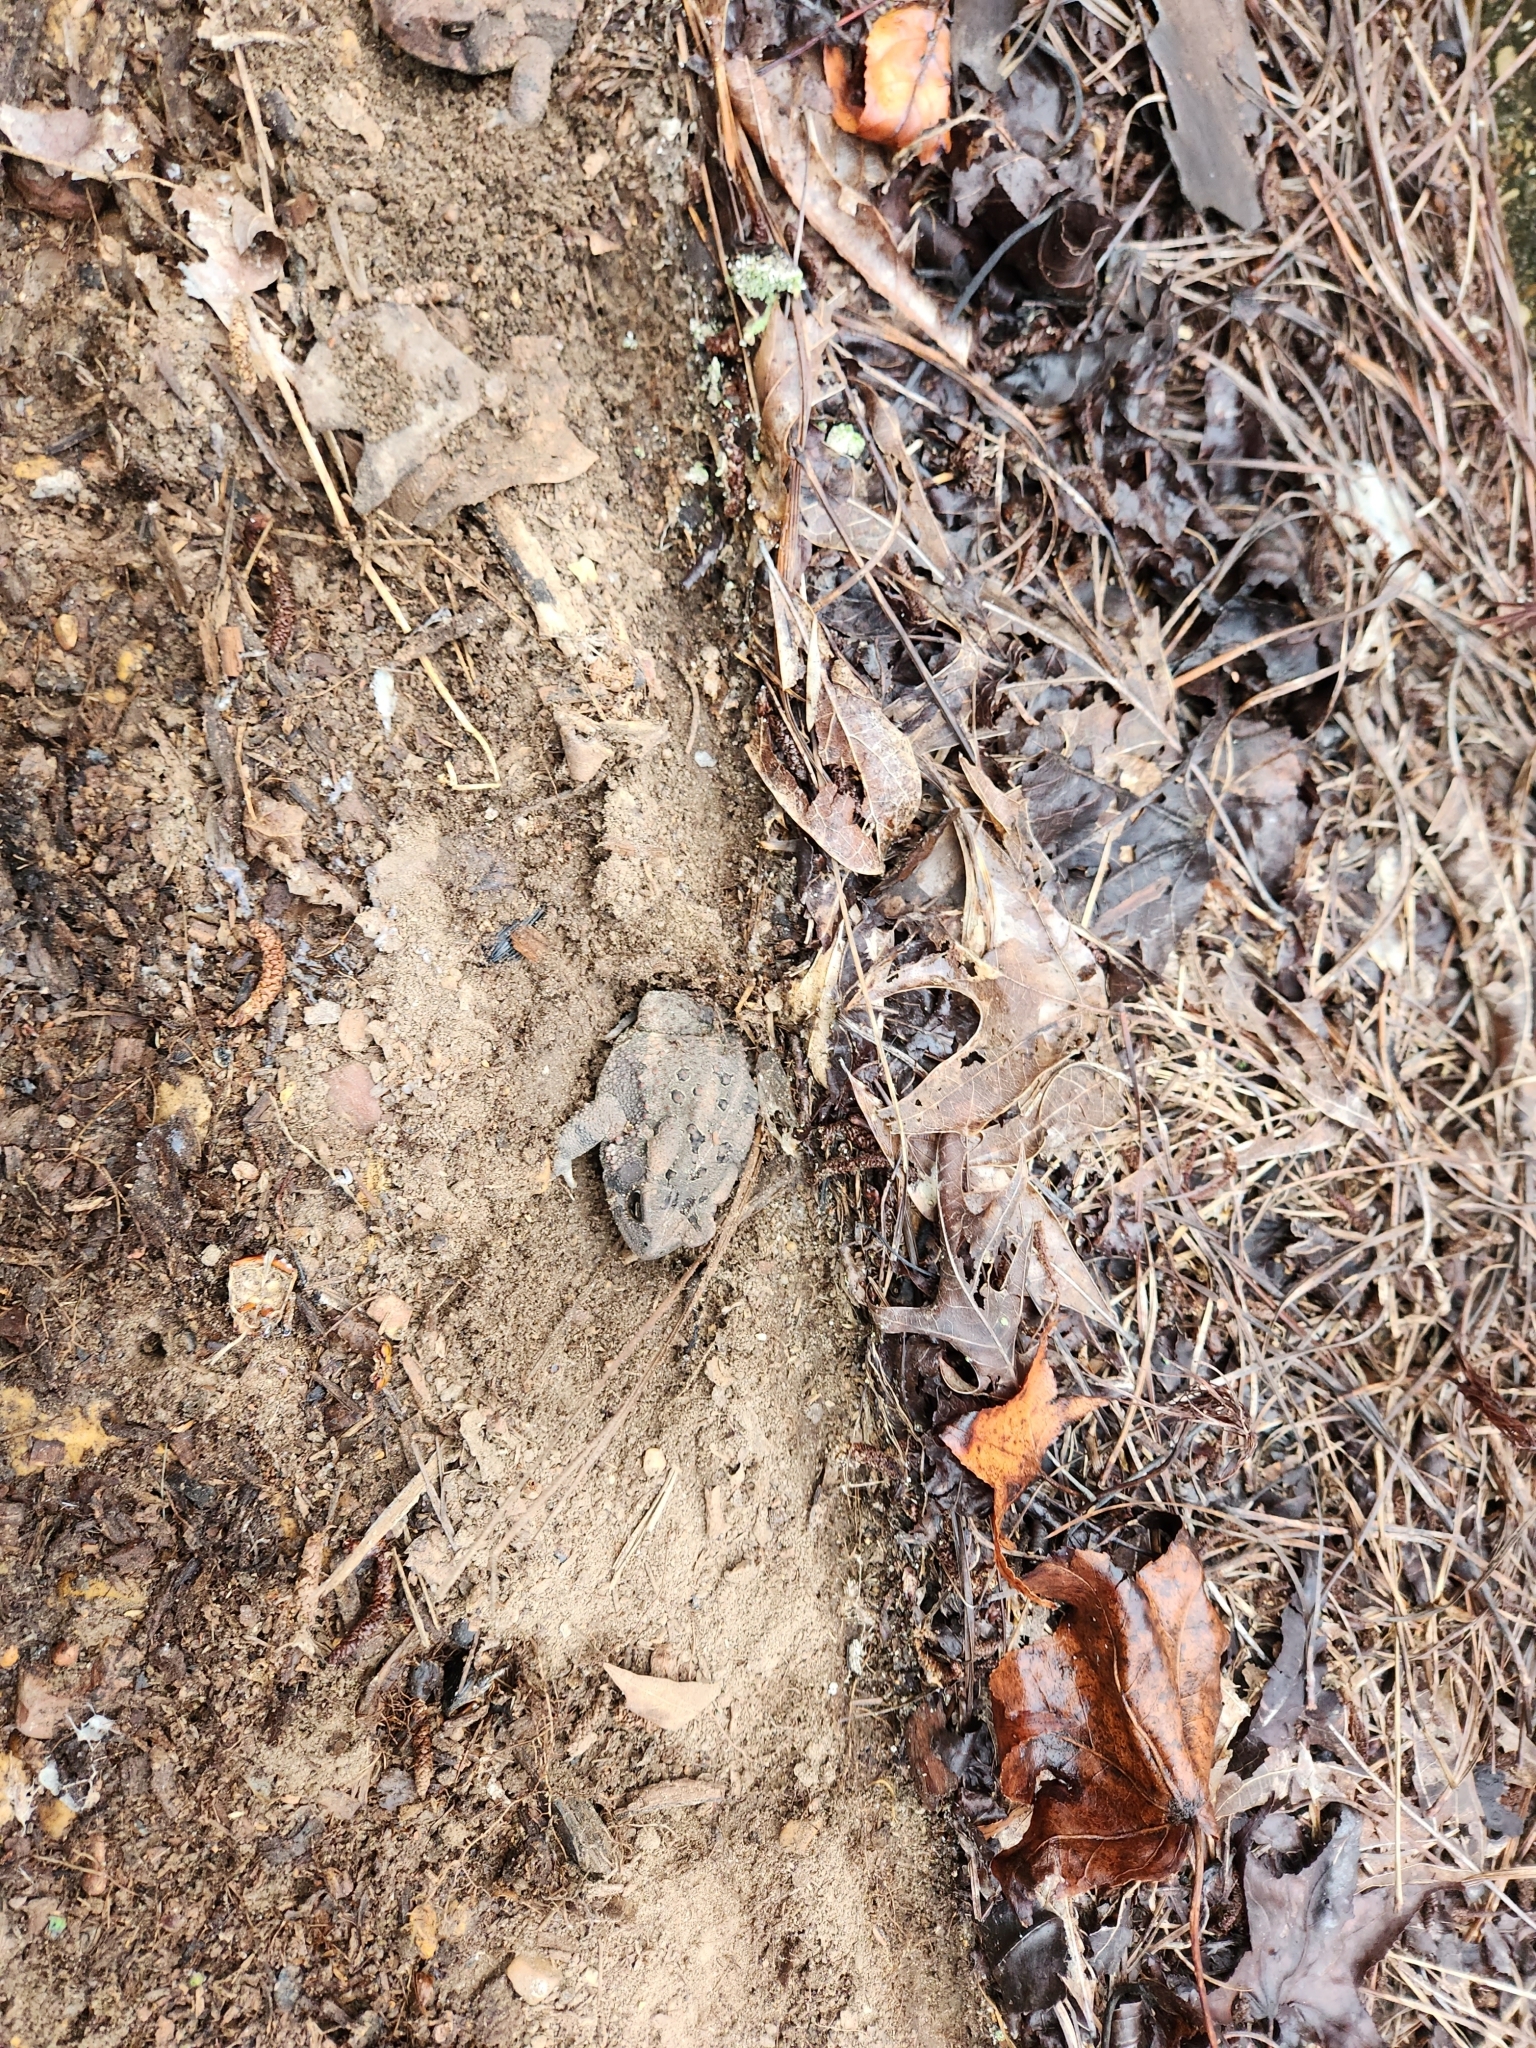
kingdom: Animalia
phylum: Chordata
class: Amphibia
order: Anura
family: Bufonidae
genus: Anaxyrus
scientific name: Anaxyrus fowleri
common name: Fowler's toad
